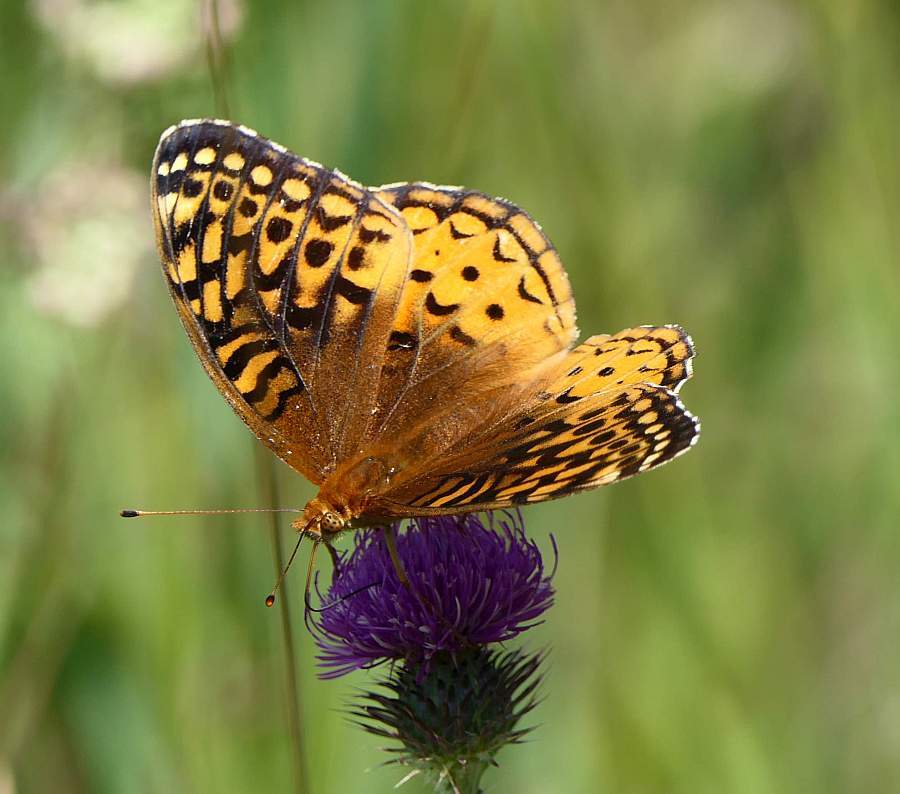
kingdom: Animalia
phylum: Arthropoda
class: Insecta
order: Lepidoptera
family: Nymphalidae
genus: Speyeria
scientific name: Speyeria cybele
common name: Great spangled fritillary
